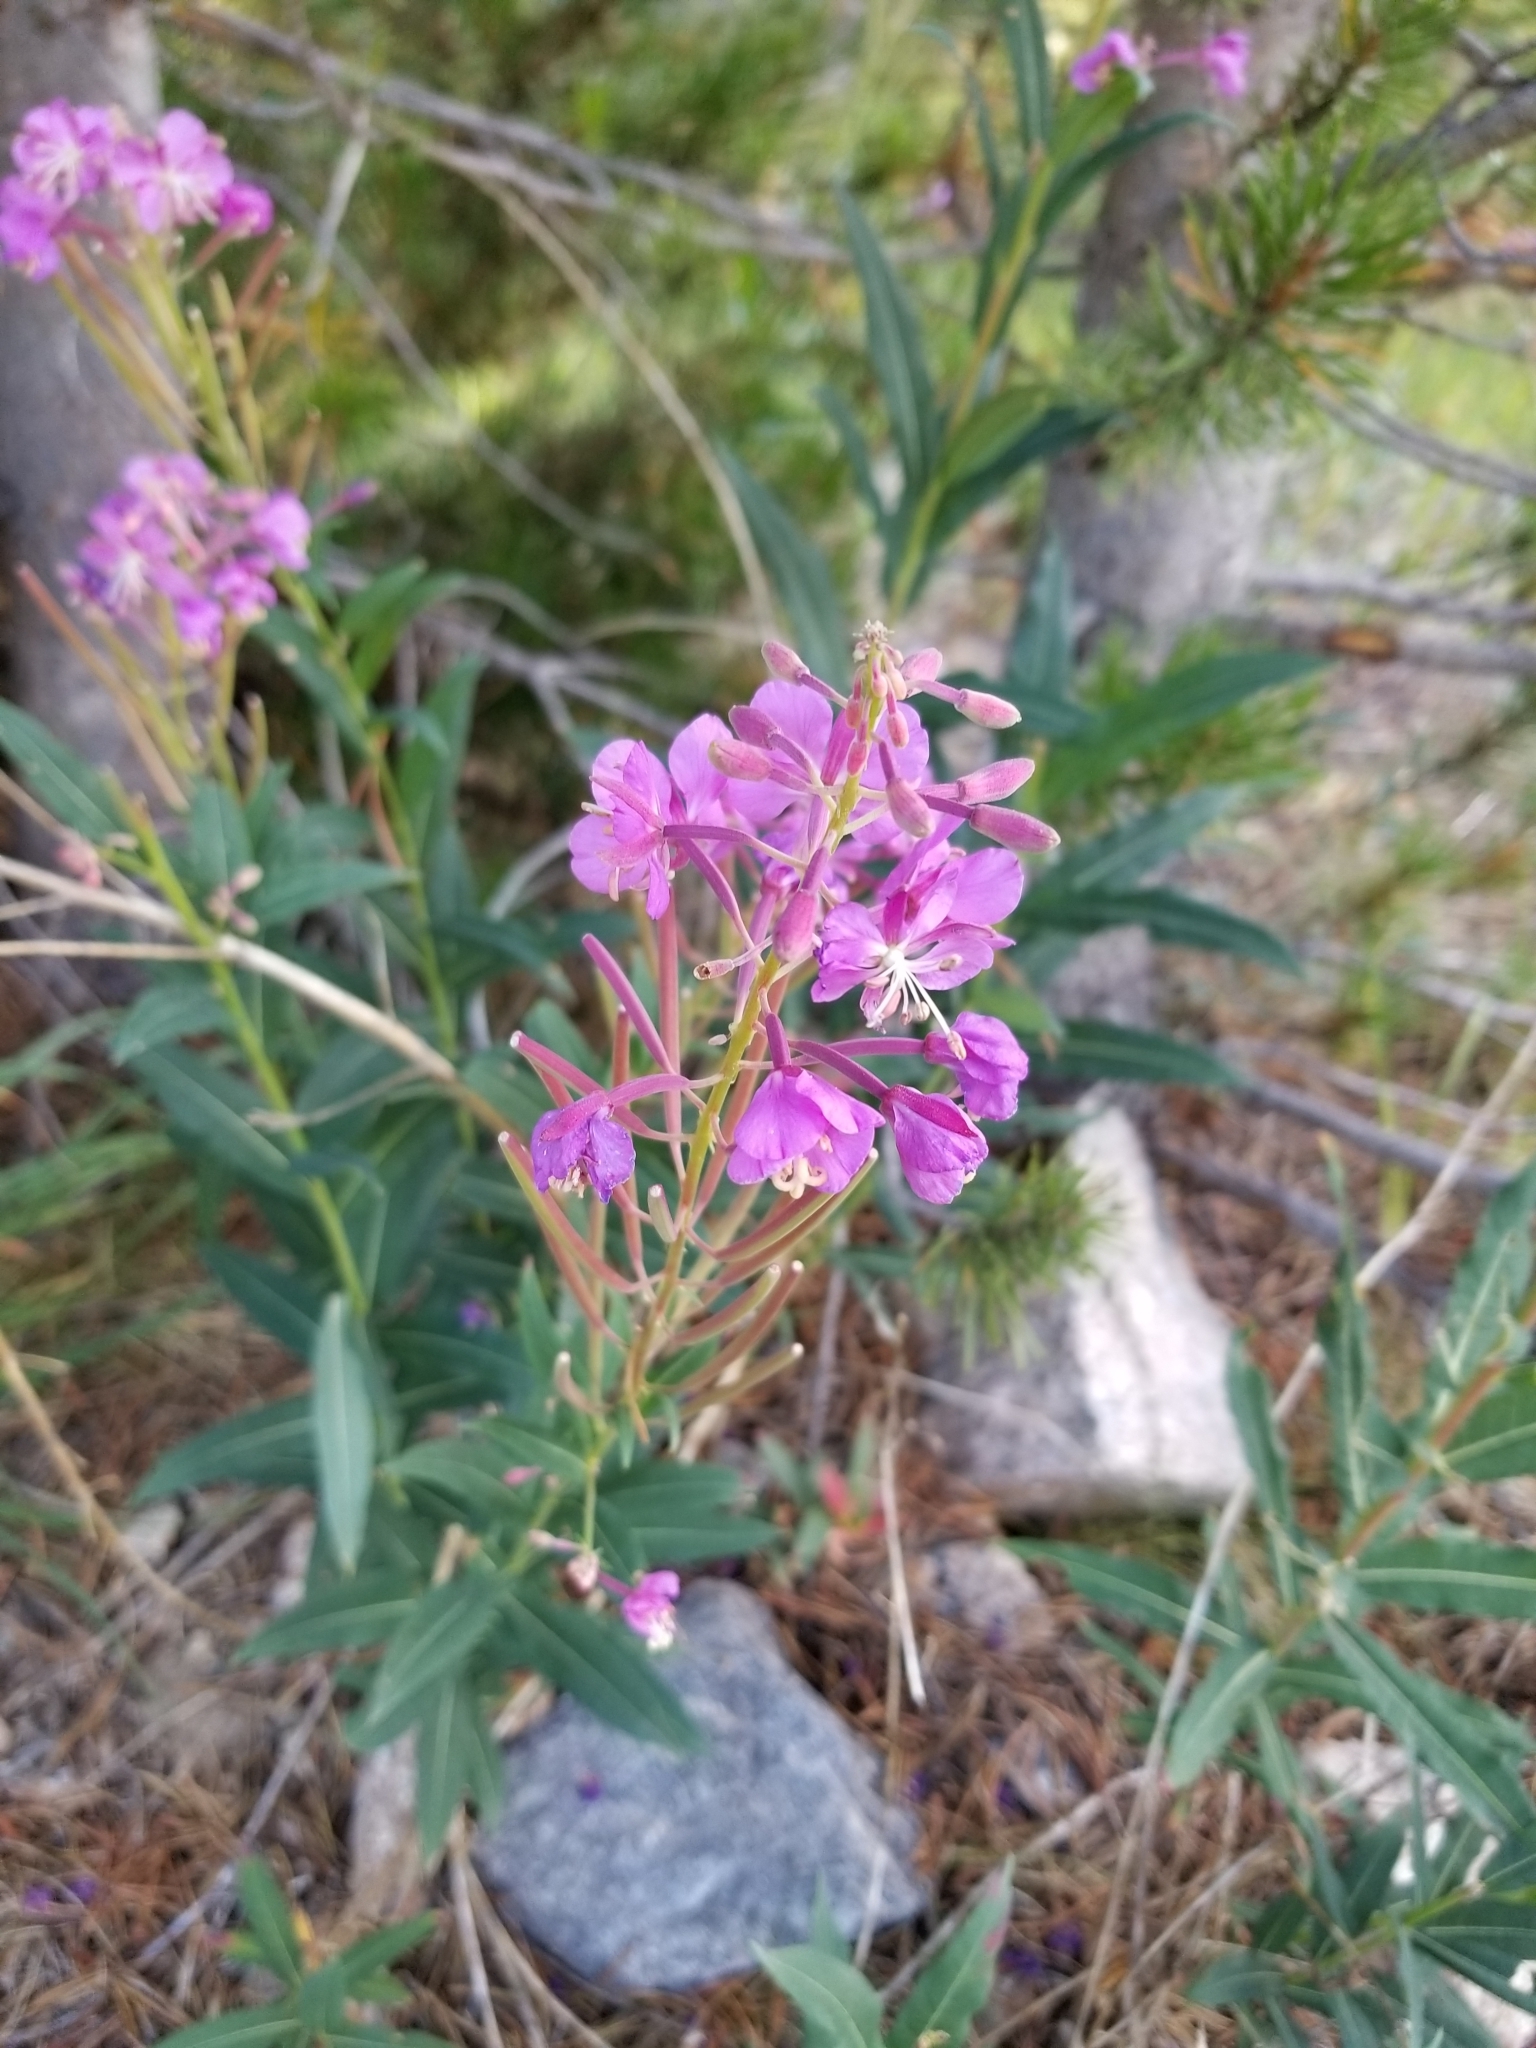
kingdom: Plantae
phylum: Tracheophyta
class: Magnoliopsida
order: Myrtales
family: Onagraceae
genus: Chamaenerion
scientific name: Chamaenerion angustifolium
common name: Fireweed
